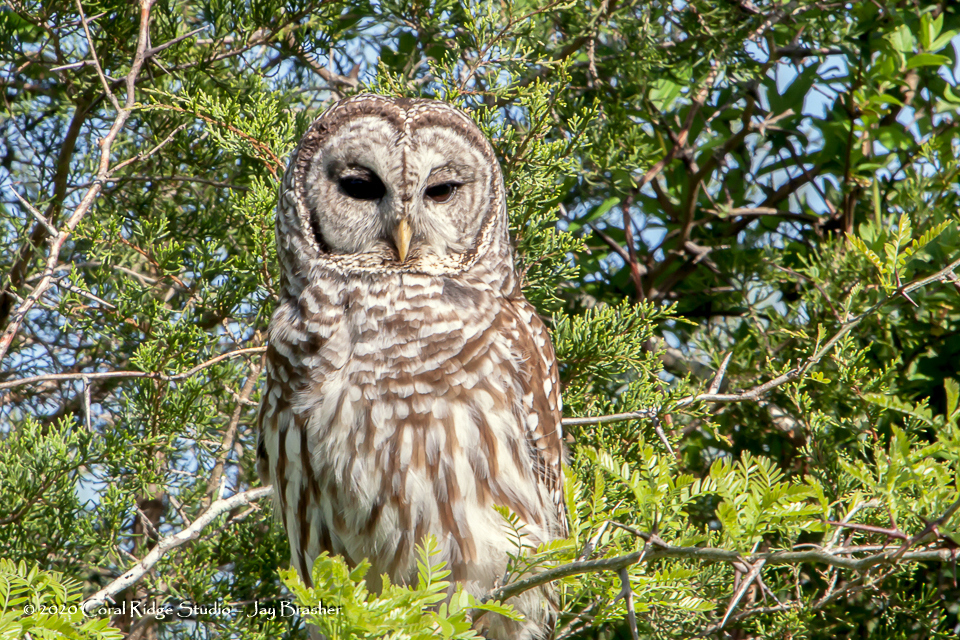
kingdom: Animalia
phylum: Chordata
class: Aves
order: Strigiformes
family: Strigidae
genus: Strix
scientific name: Strix varia
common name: Barred owl
